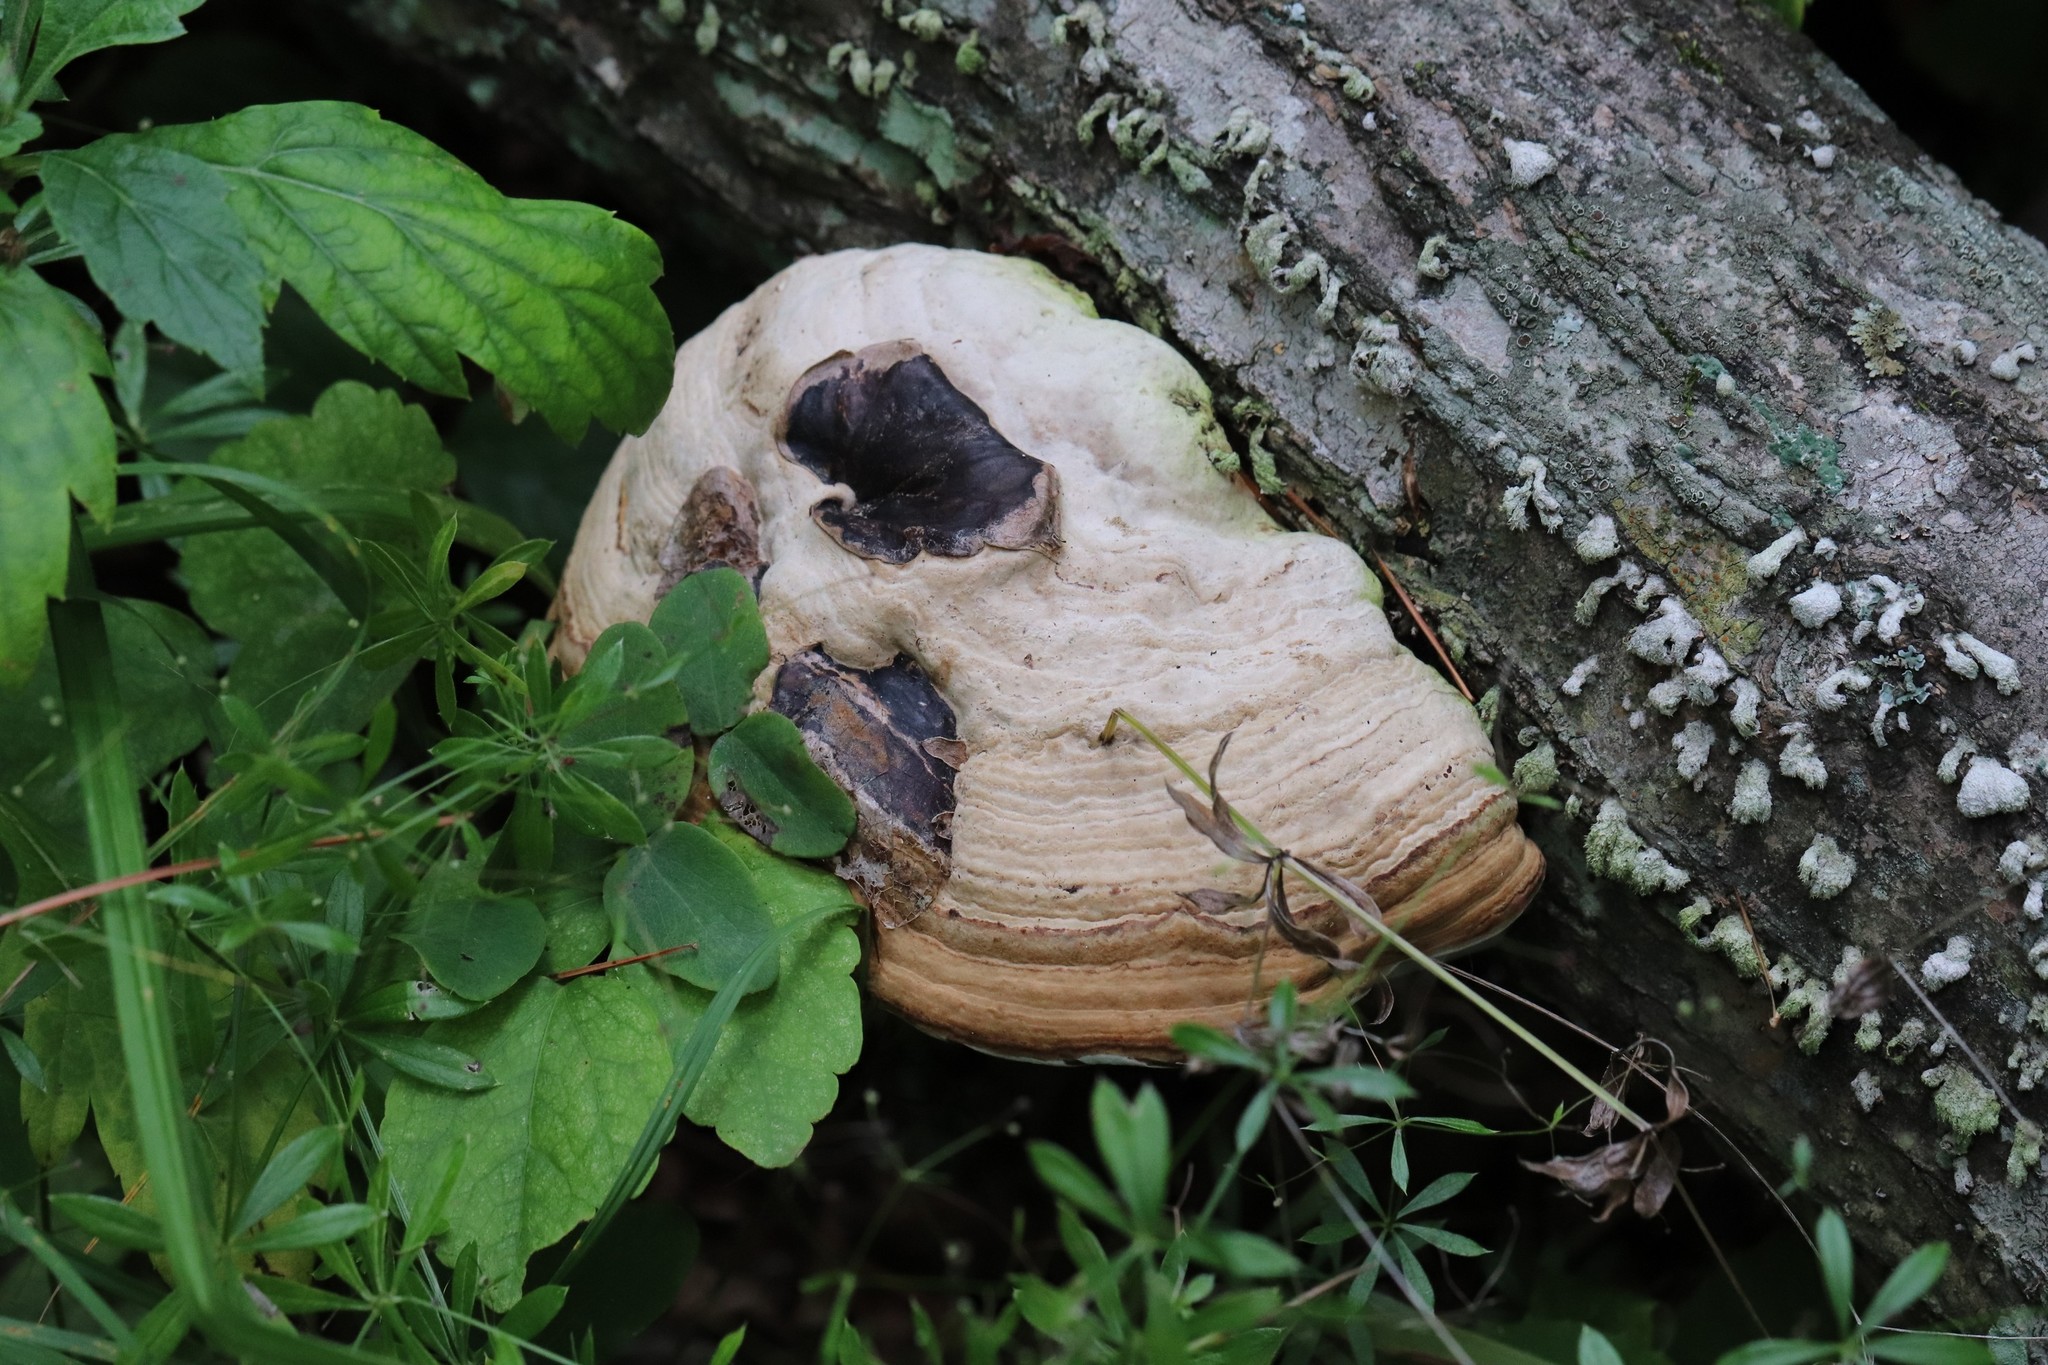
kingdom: Fungi
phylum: Basidiomycota
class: Agaricomycetes
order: Polyporales
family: Polyporaceae
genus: Fomes
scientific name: Fomes fomentarius
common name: Hoof fungus
